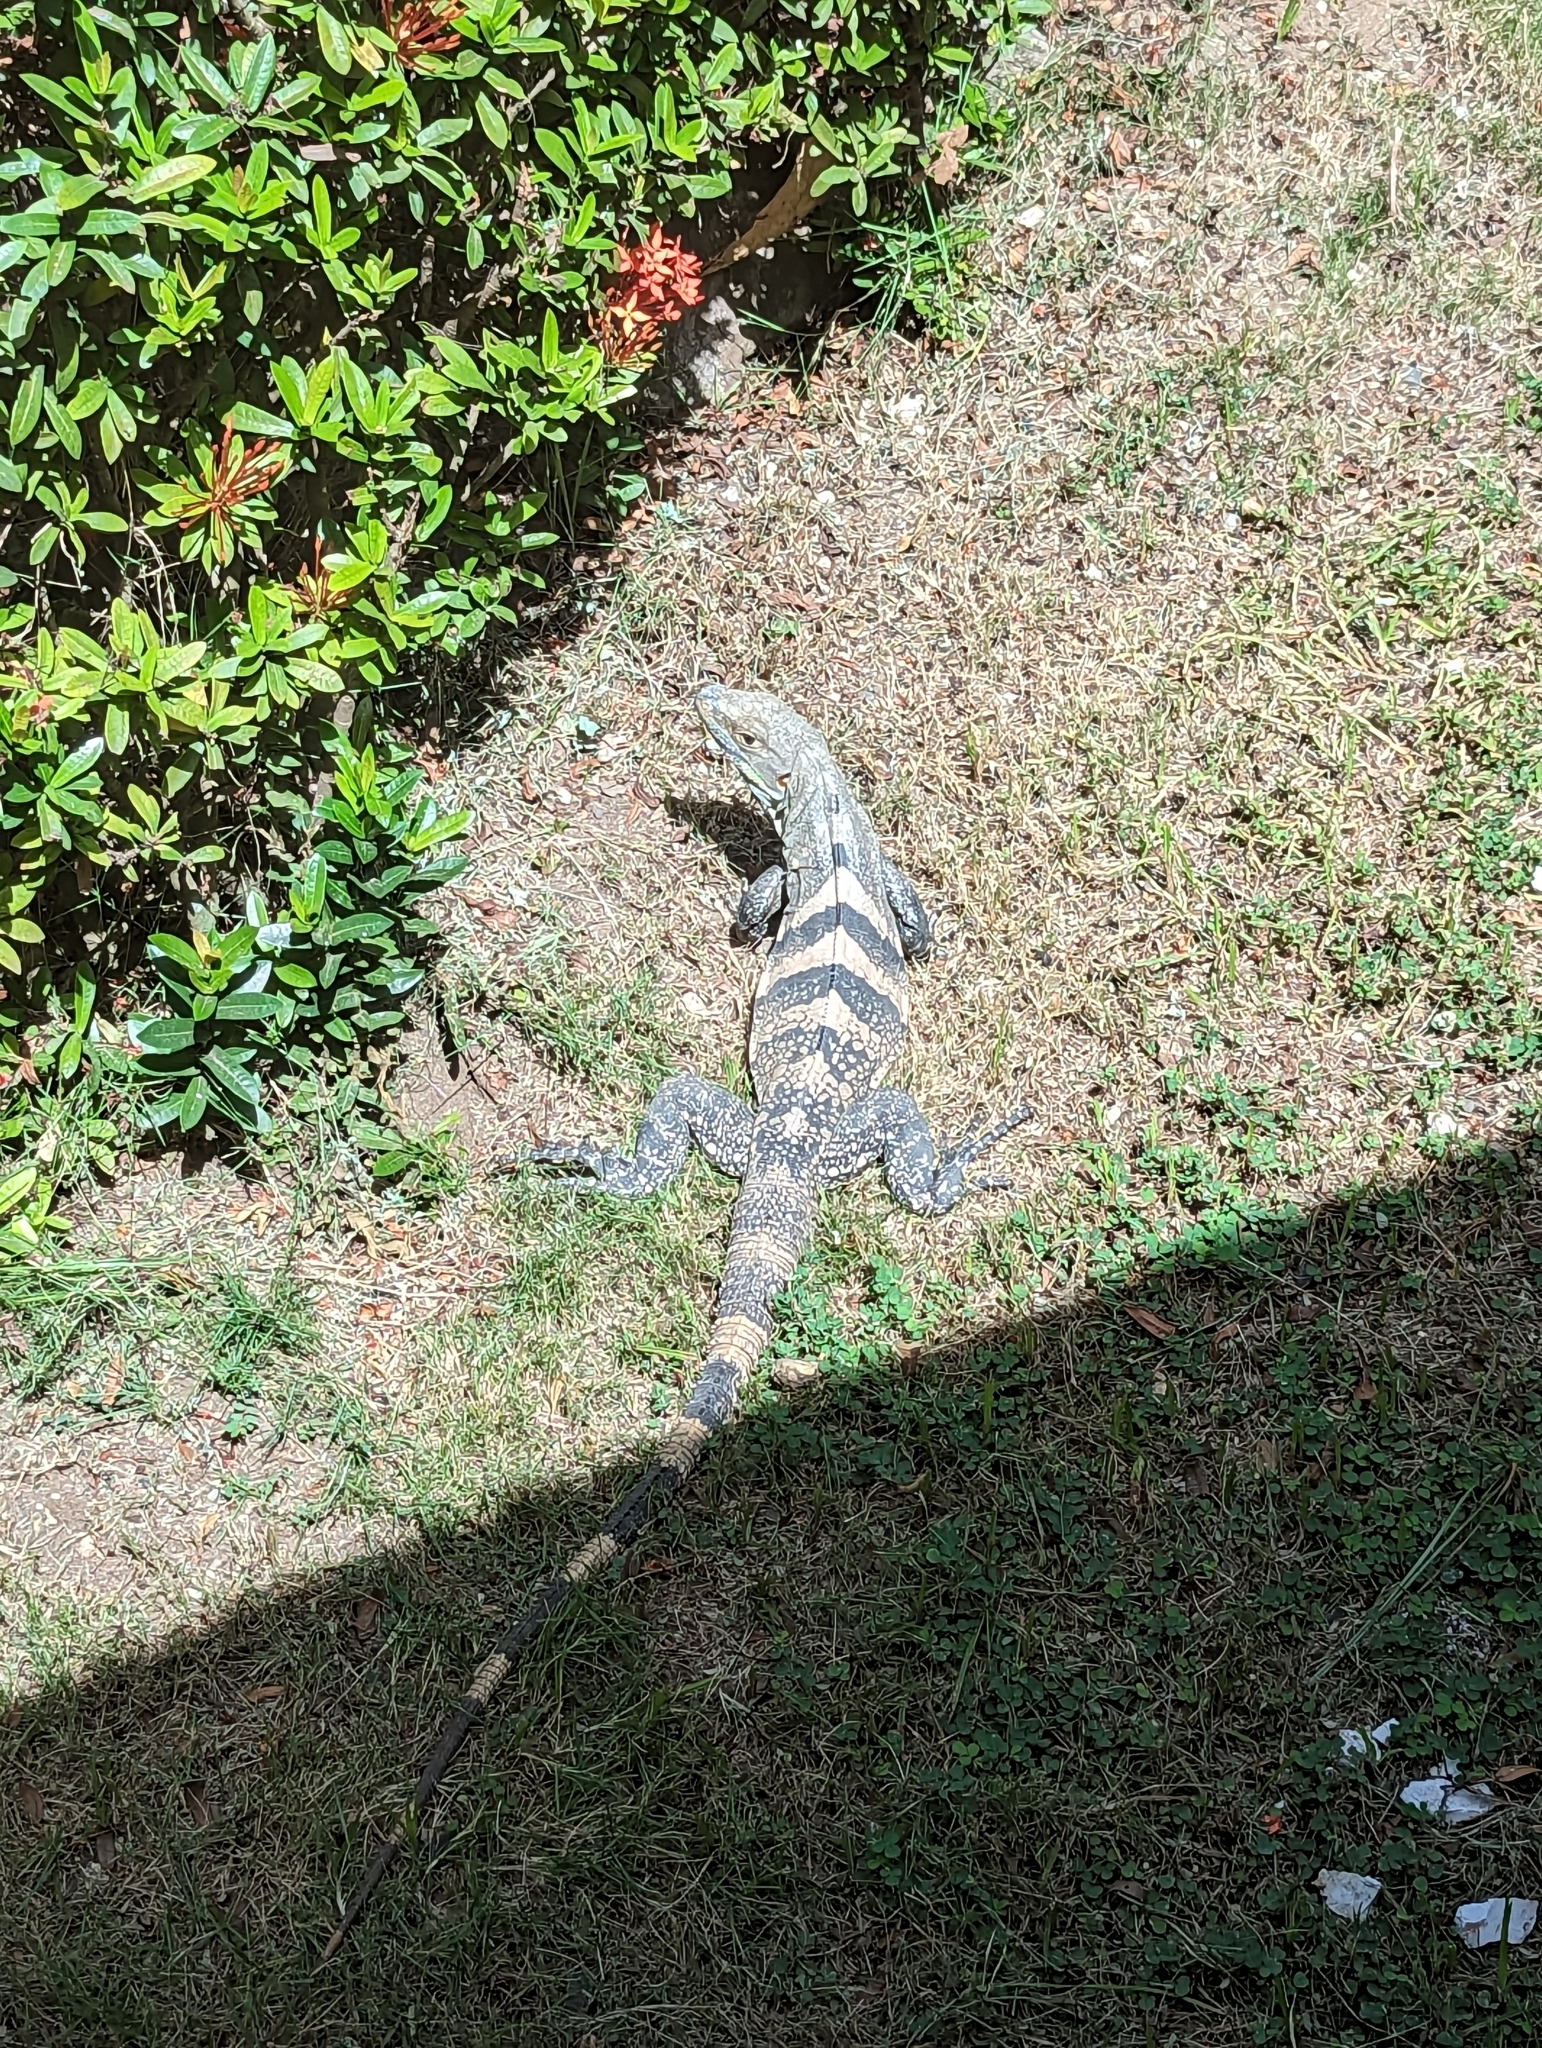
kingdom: Animalia
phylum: Chordata
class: Squamata
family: Iguanidae
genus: Ctenosaura
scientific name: Ctenosaura similis
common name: Black spiny-tailed iguana
